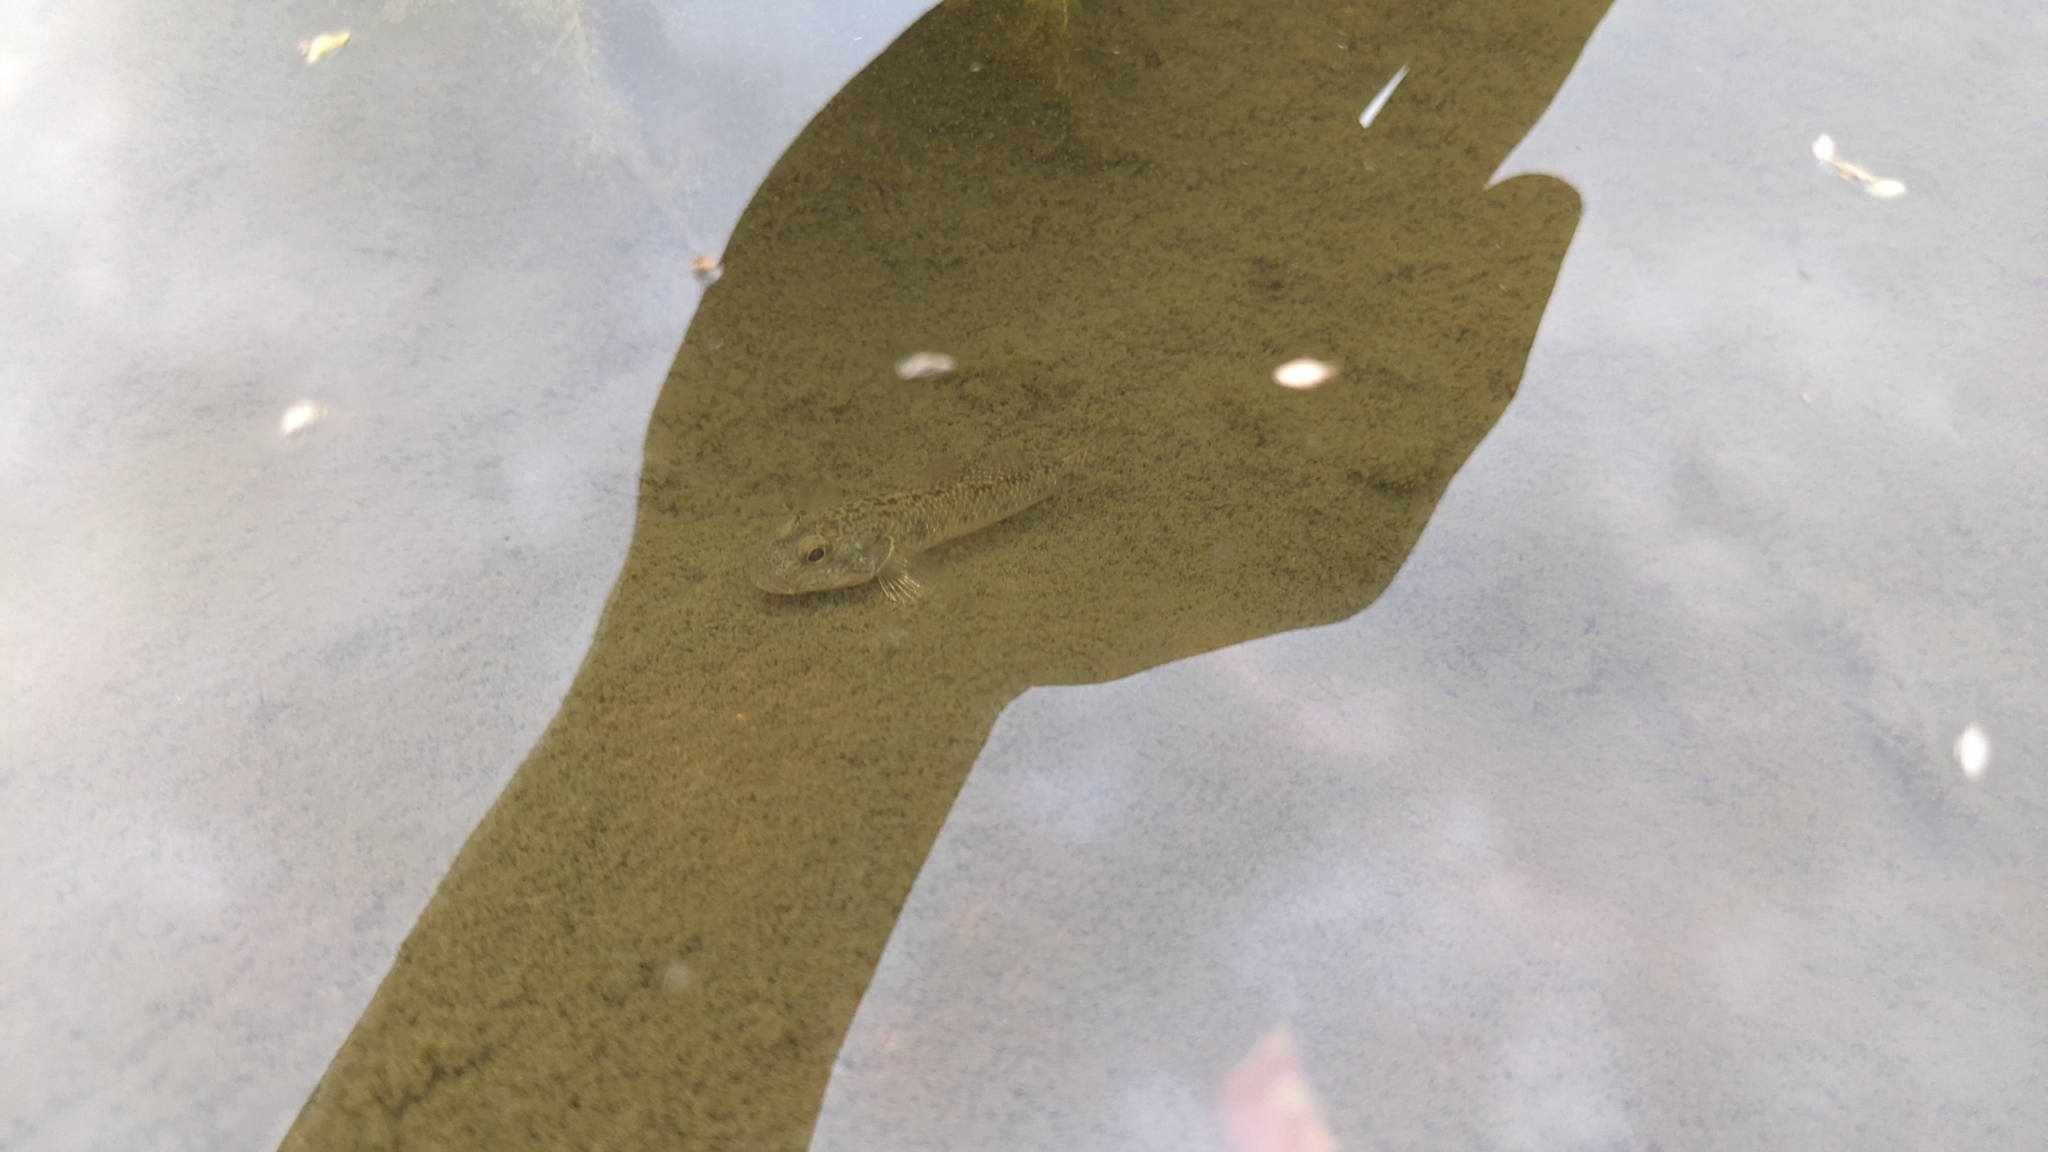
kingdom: Animalia
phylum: Chordata
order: Perciformes
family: Gobiidae
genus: Rhinogobius
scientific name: Rhinogobius similis
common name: Amur goby
